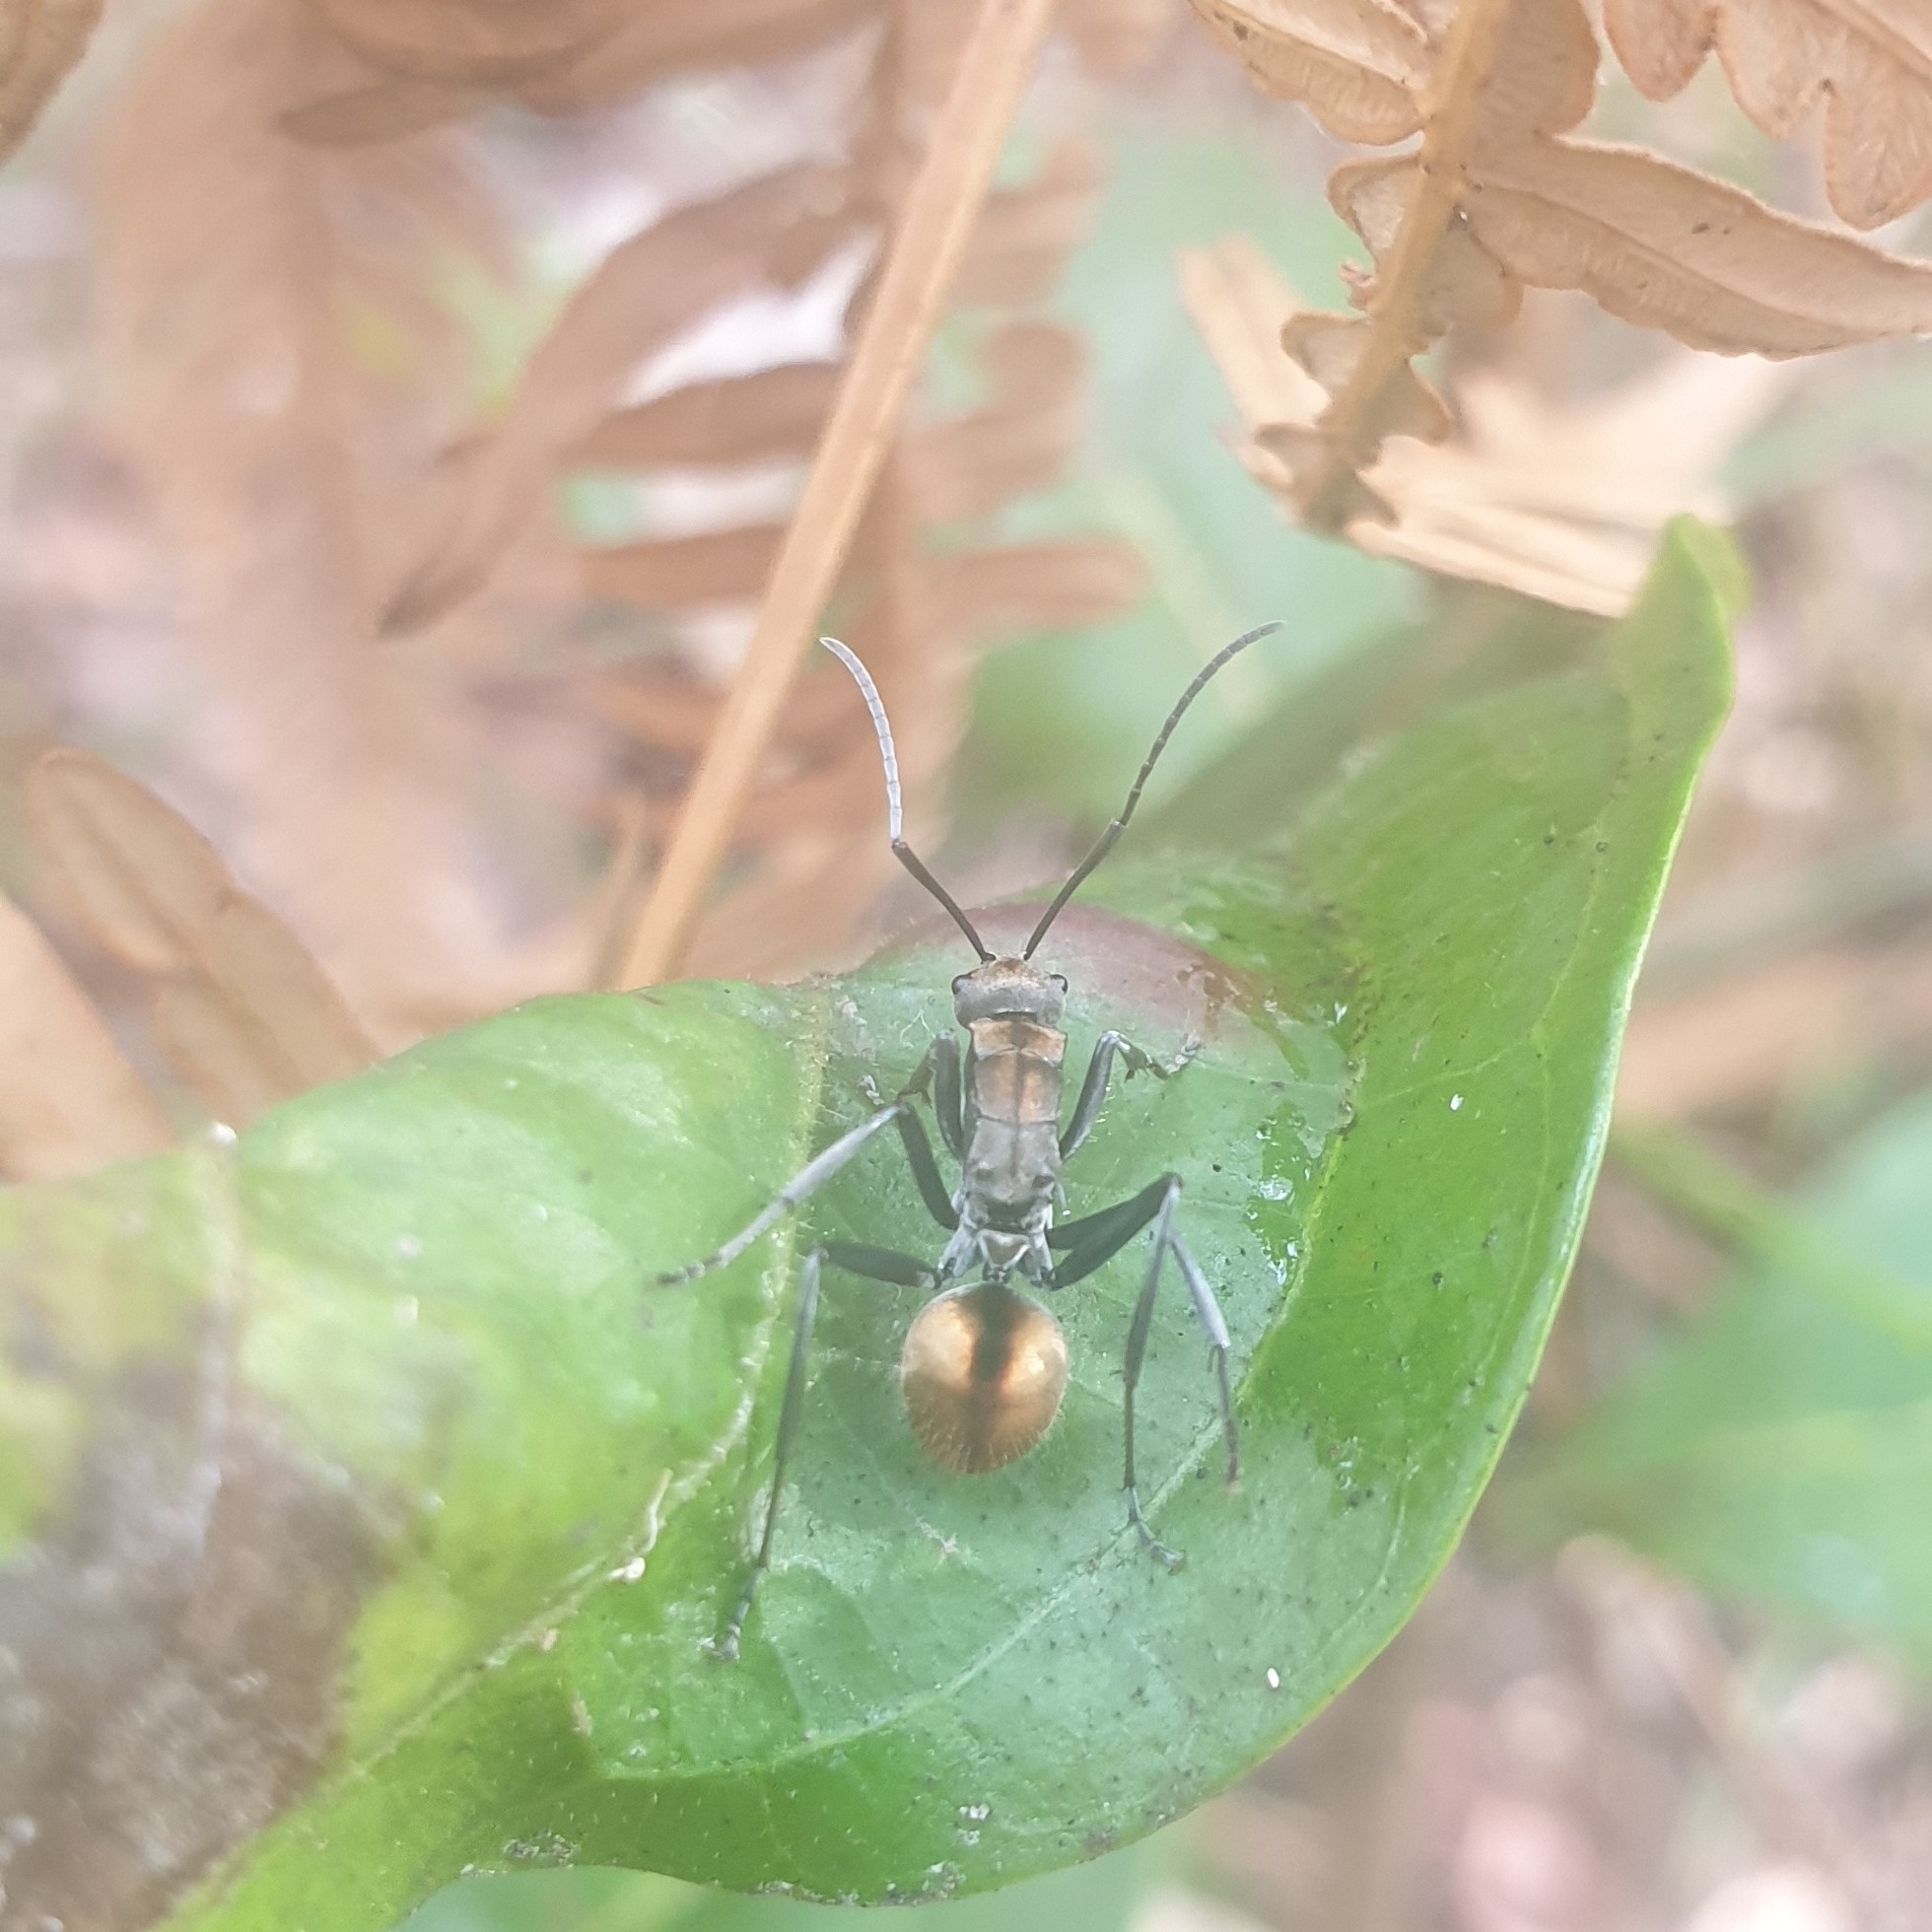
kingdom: Animalia
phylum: Arthropoda
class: Insecta
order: Hymenoptera
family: Formicidae
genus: Polyrhachis
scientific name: Polyrhachis
